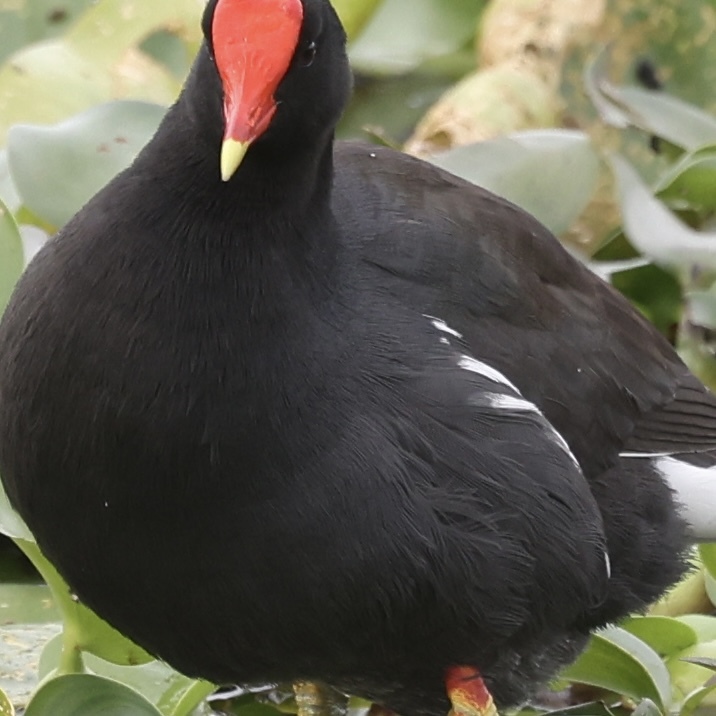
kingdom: Animalia
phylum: Chordata
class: Aves
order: Gruiformes
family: Rallidae
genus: Gallinula
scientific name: Gallinula chloropus
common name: Common moorhen
